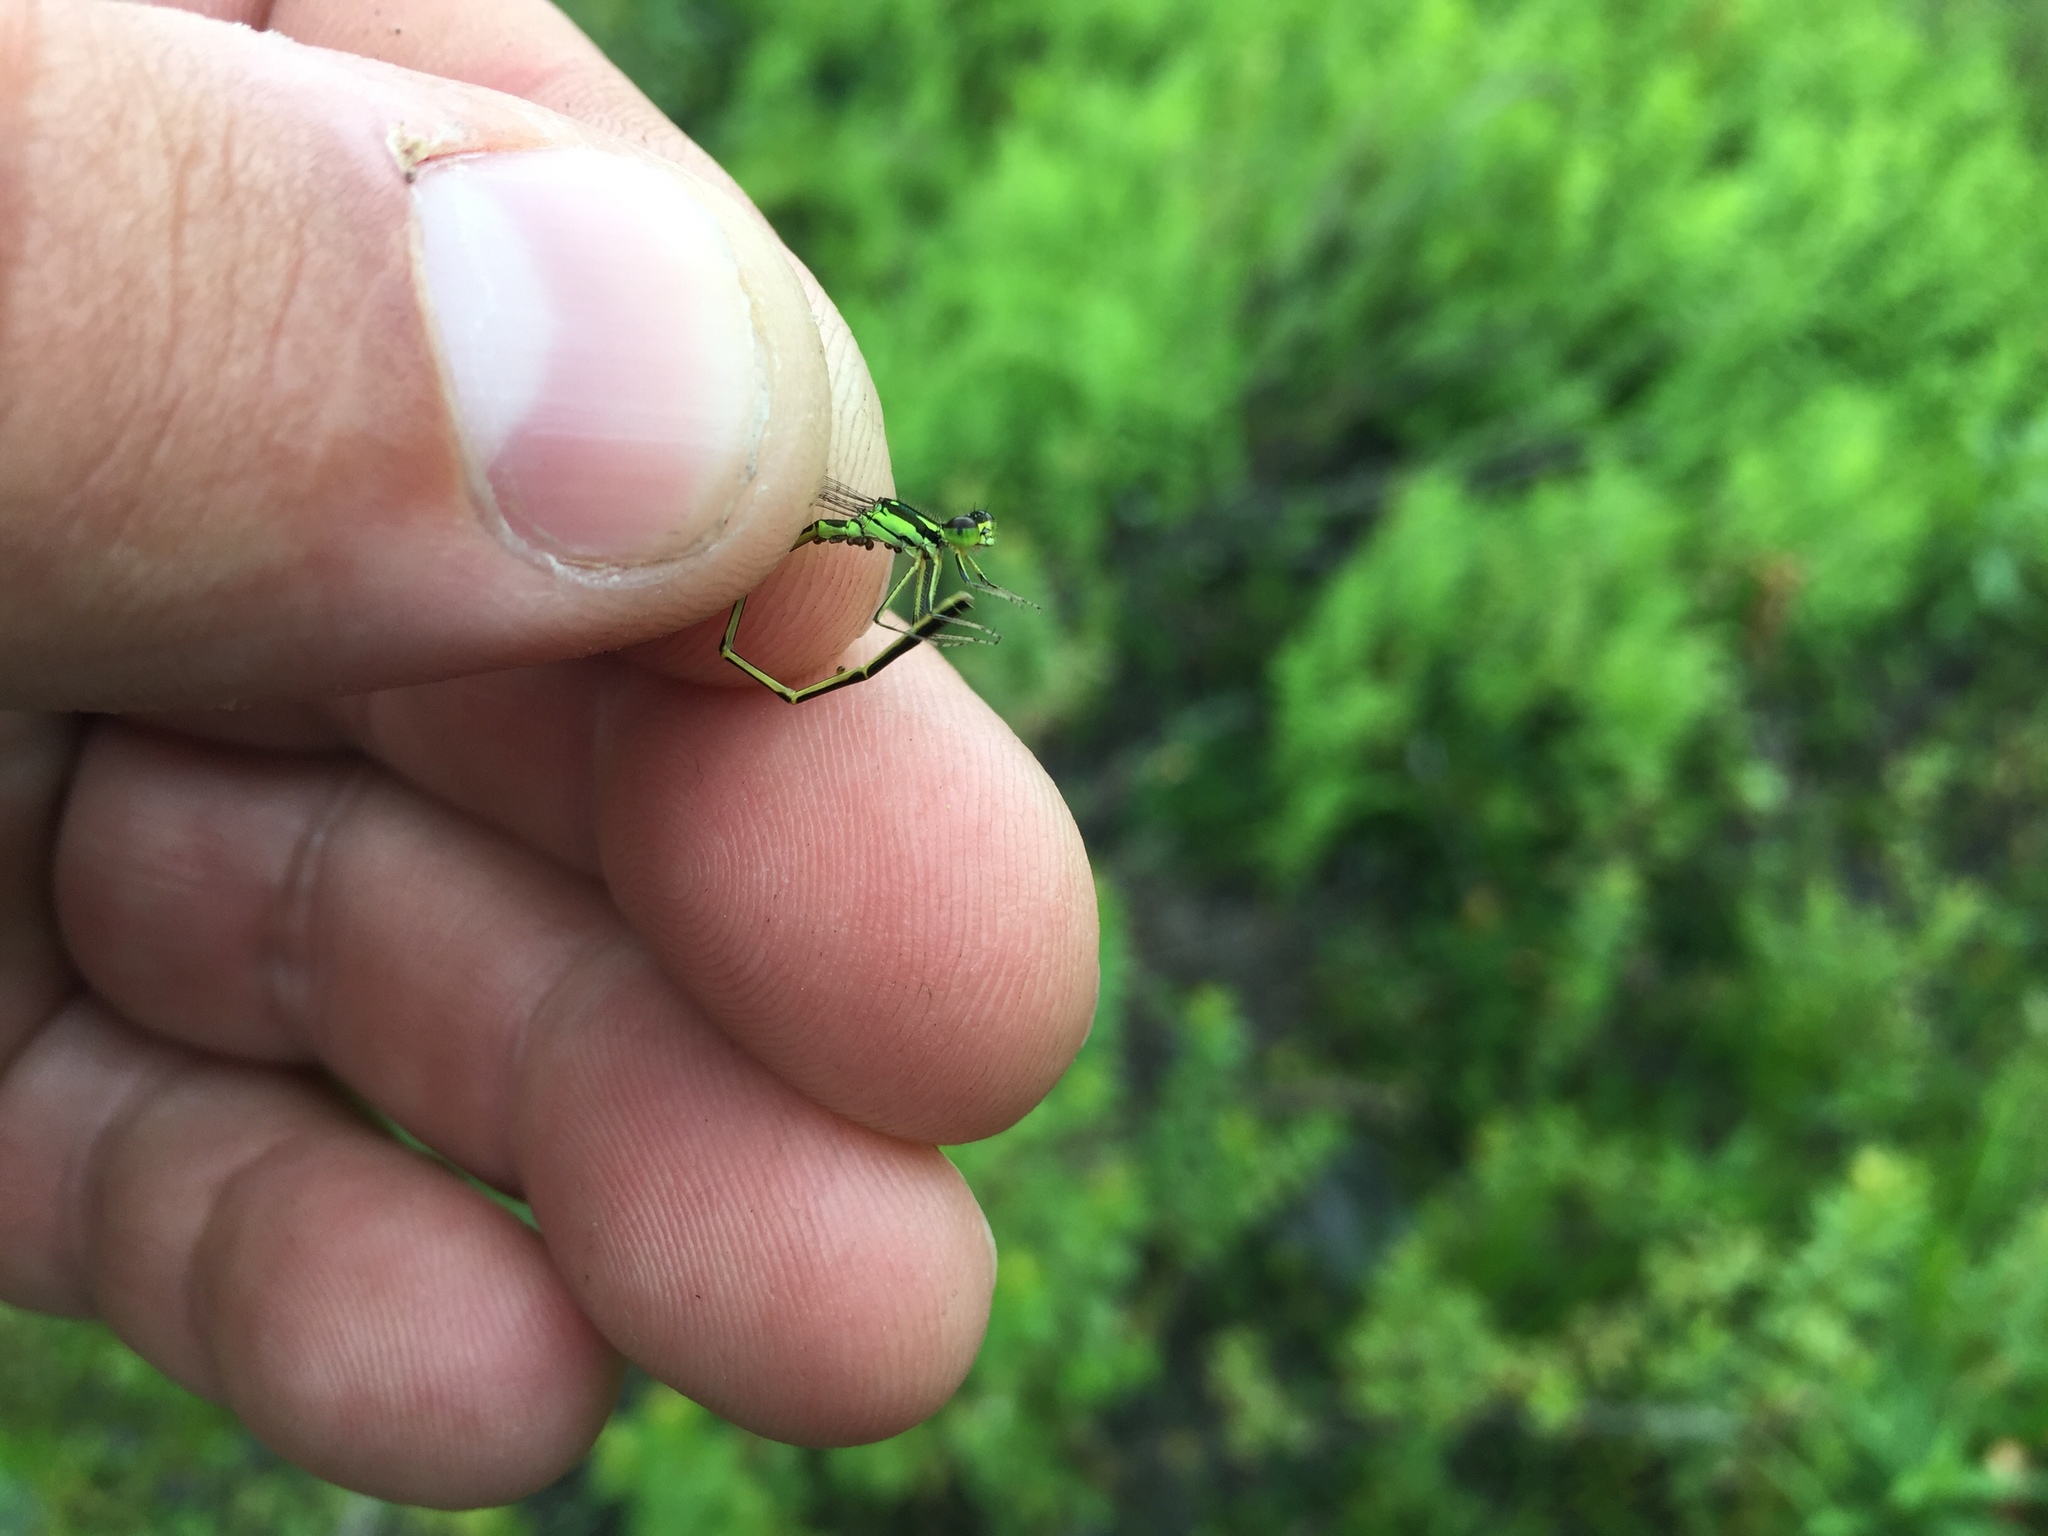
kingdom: Animalia
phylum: Arthropoda
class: Insecta
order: Odonata
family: Coenagrionidae
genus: Ischnura
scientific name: Ischnura posita
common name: Fragile forktail
